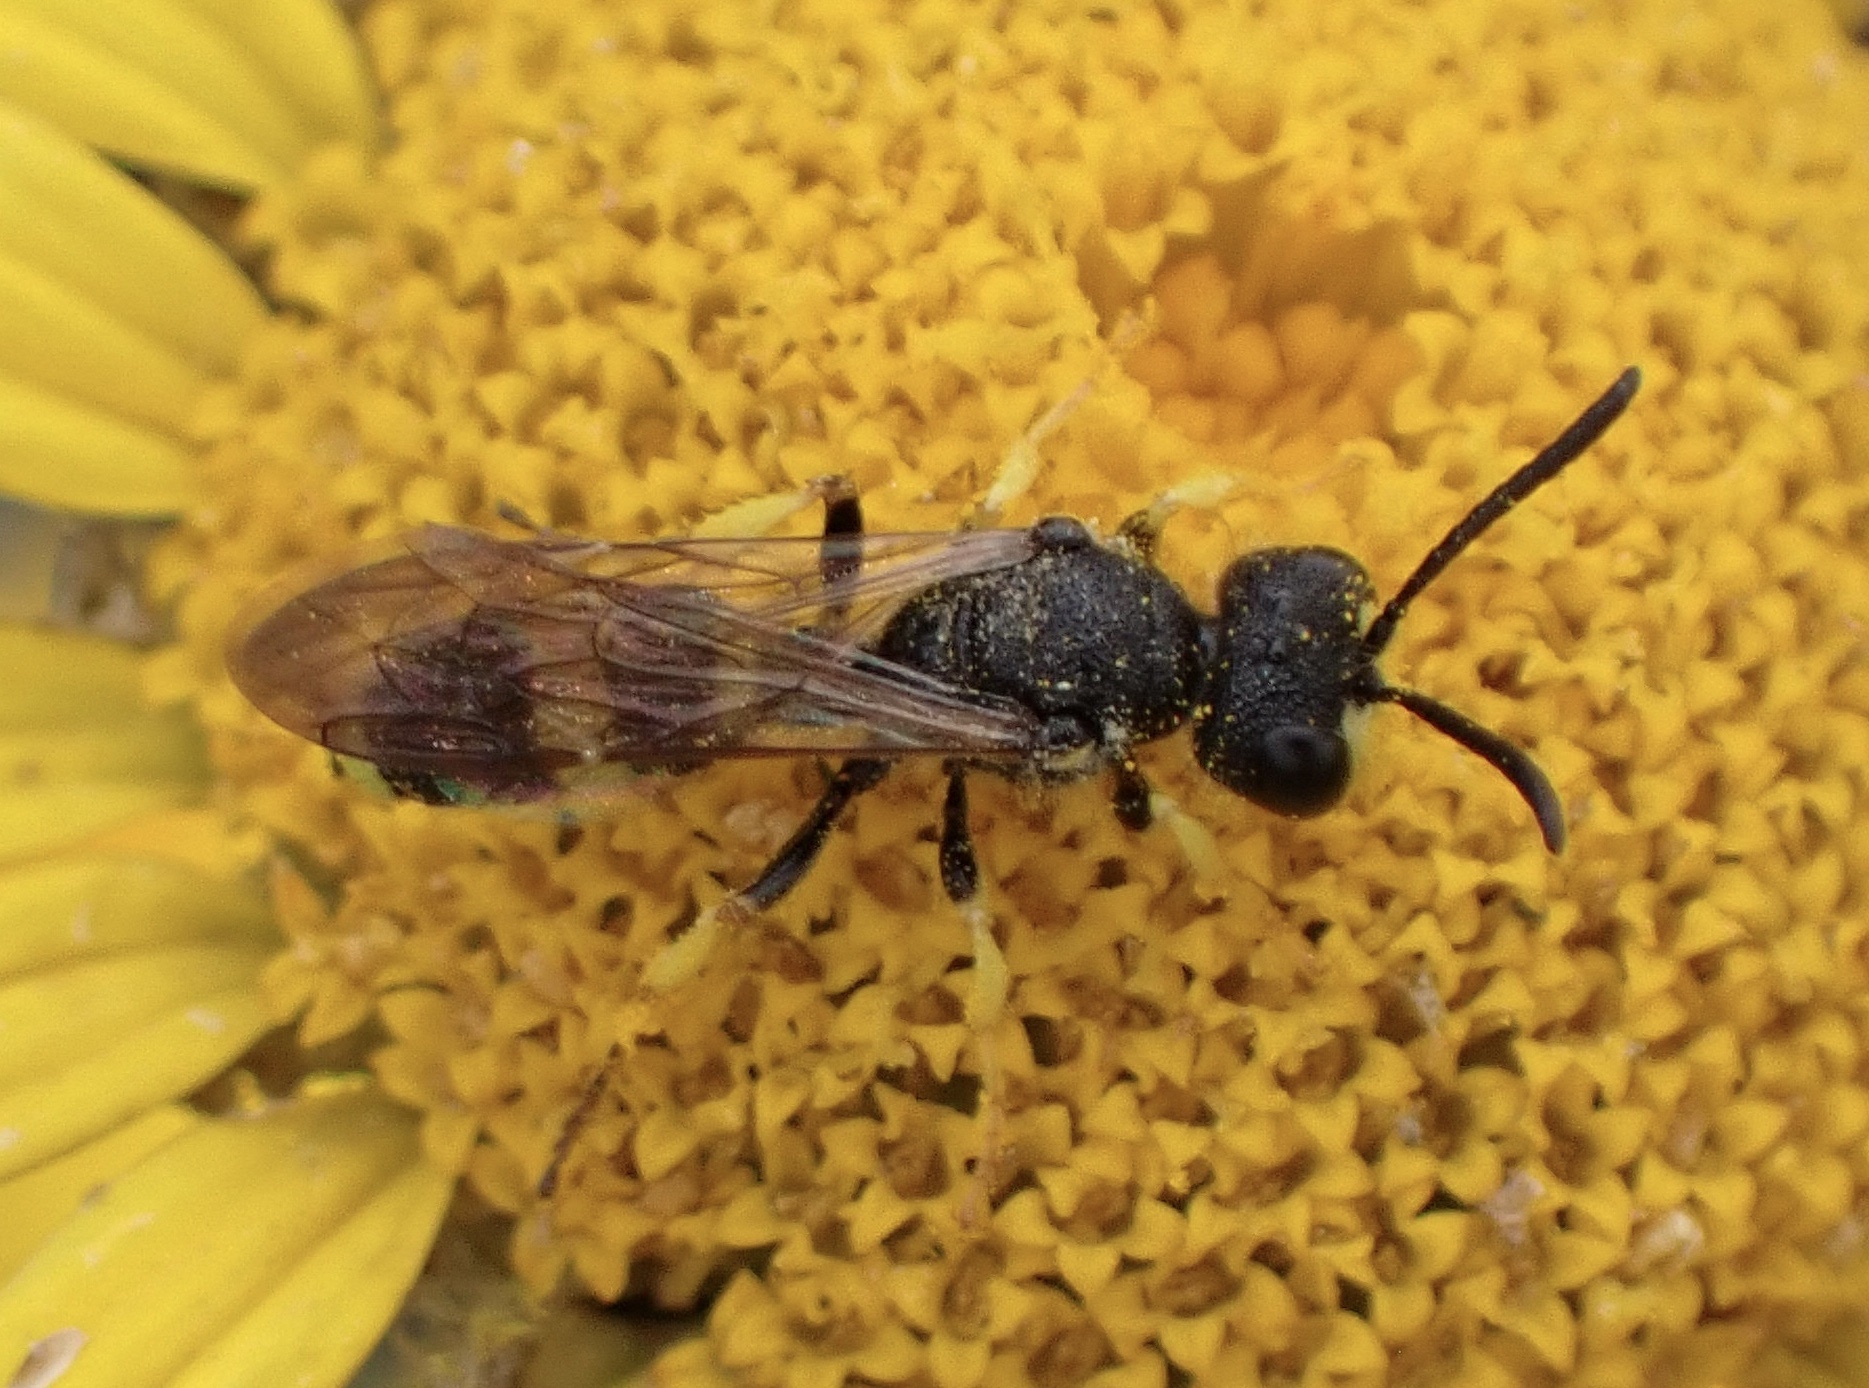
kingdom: Animalia
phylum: Arthropoda
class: Insecta
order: Hymenoptera
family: Crabronidae
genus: Cerceris
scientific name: Cerceris rybyensis
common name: Ornate tailed digger wasp
